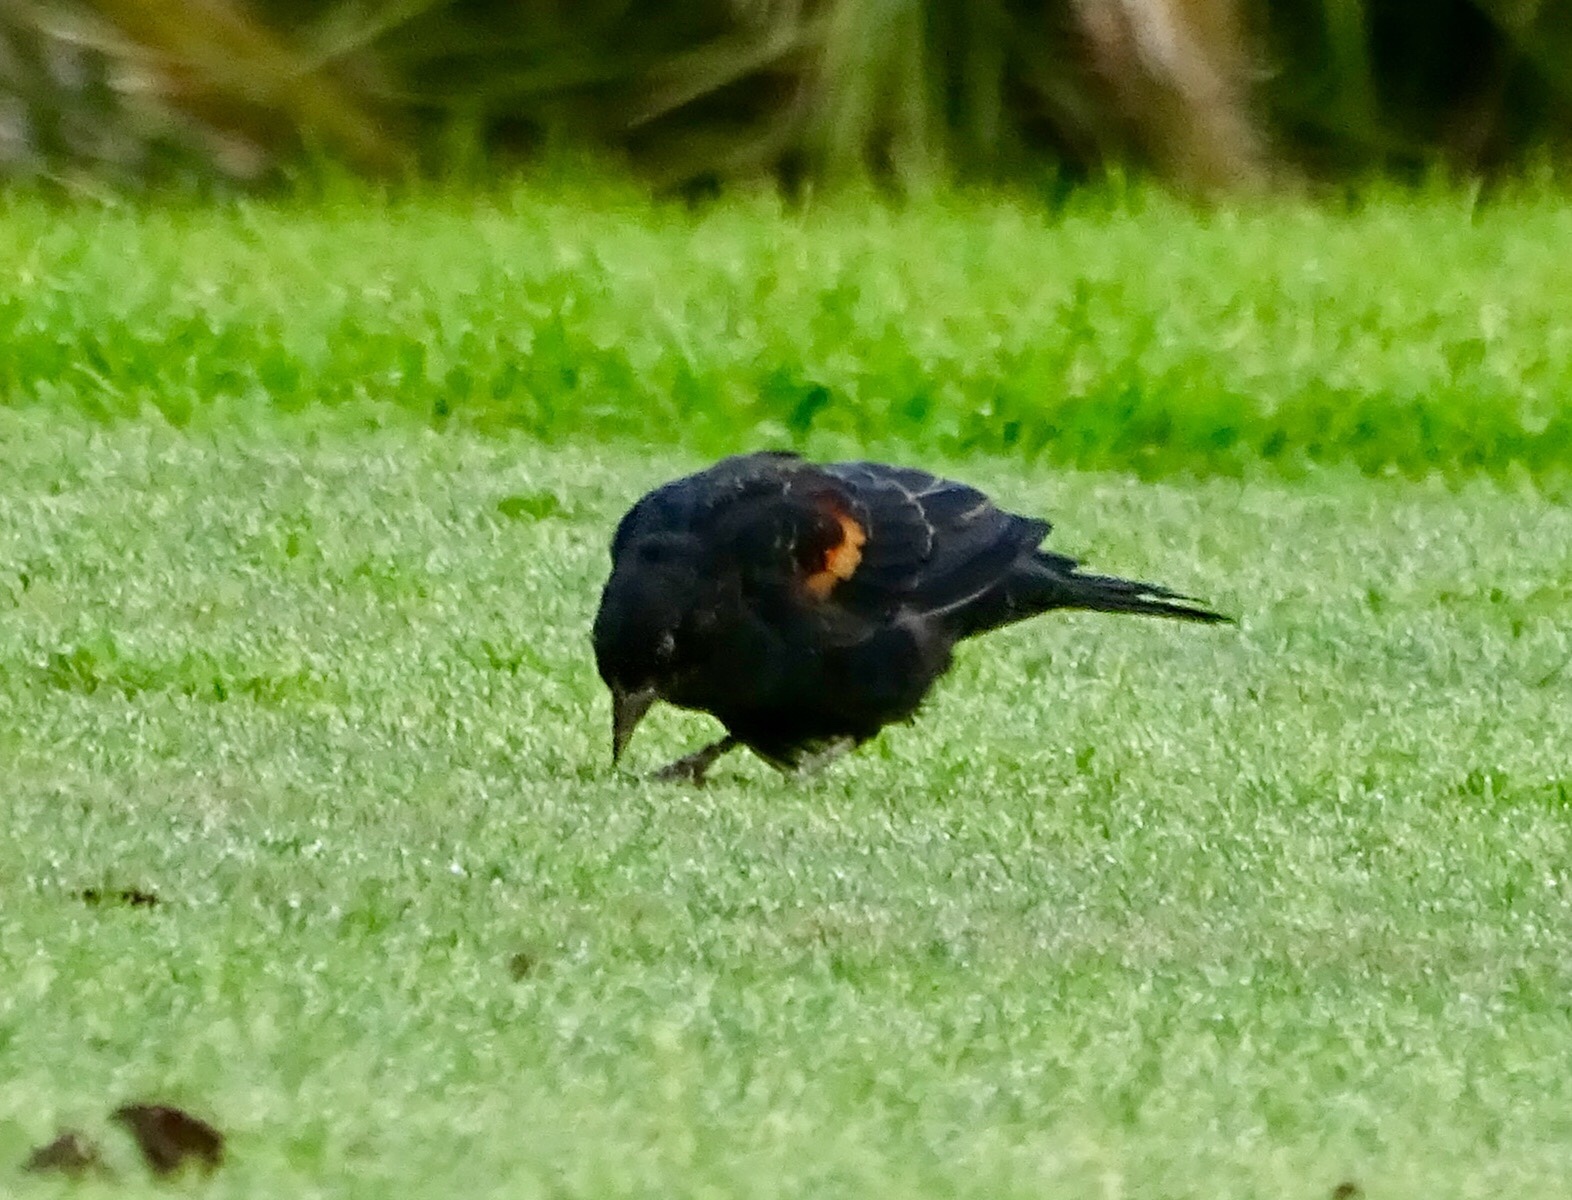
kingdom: Animalia
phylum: Chordata
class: Aves
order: Passeriformes
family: Icteridae
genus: Agelaius
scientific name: Agelaius phoeniceus
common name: Red-winged blackbird
